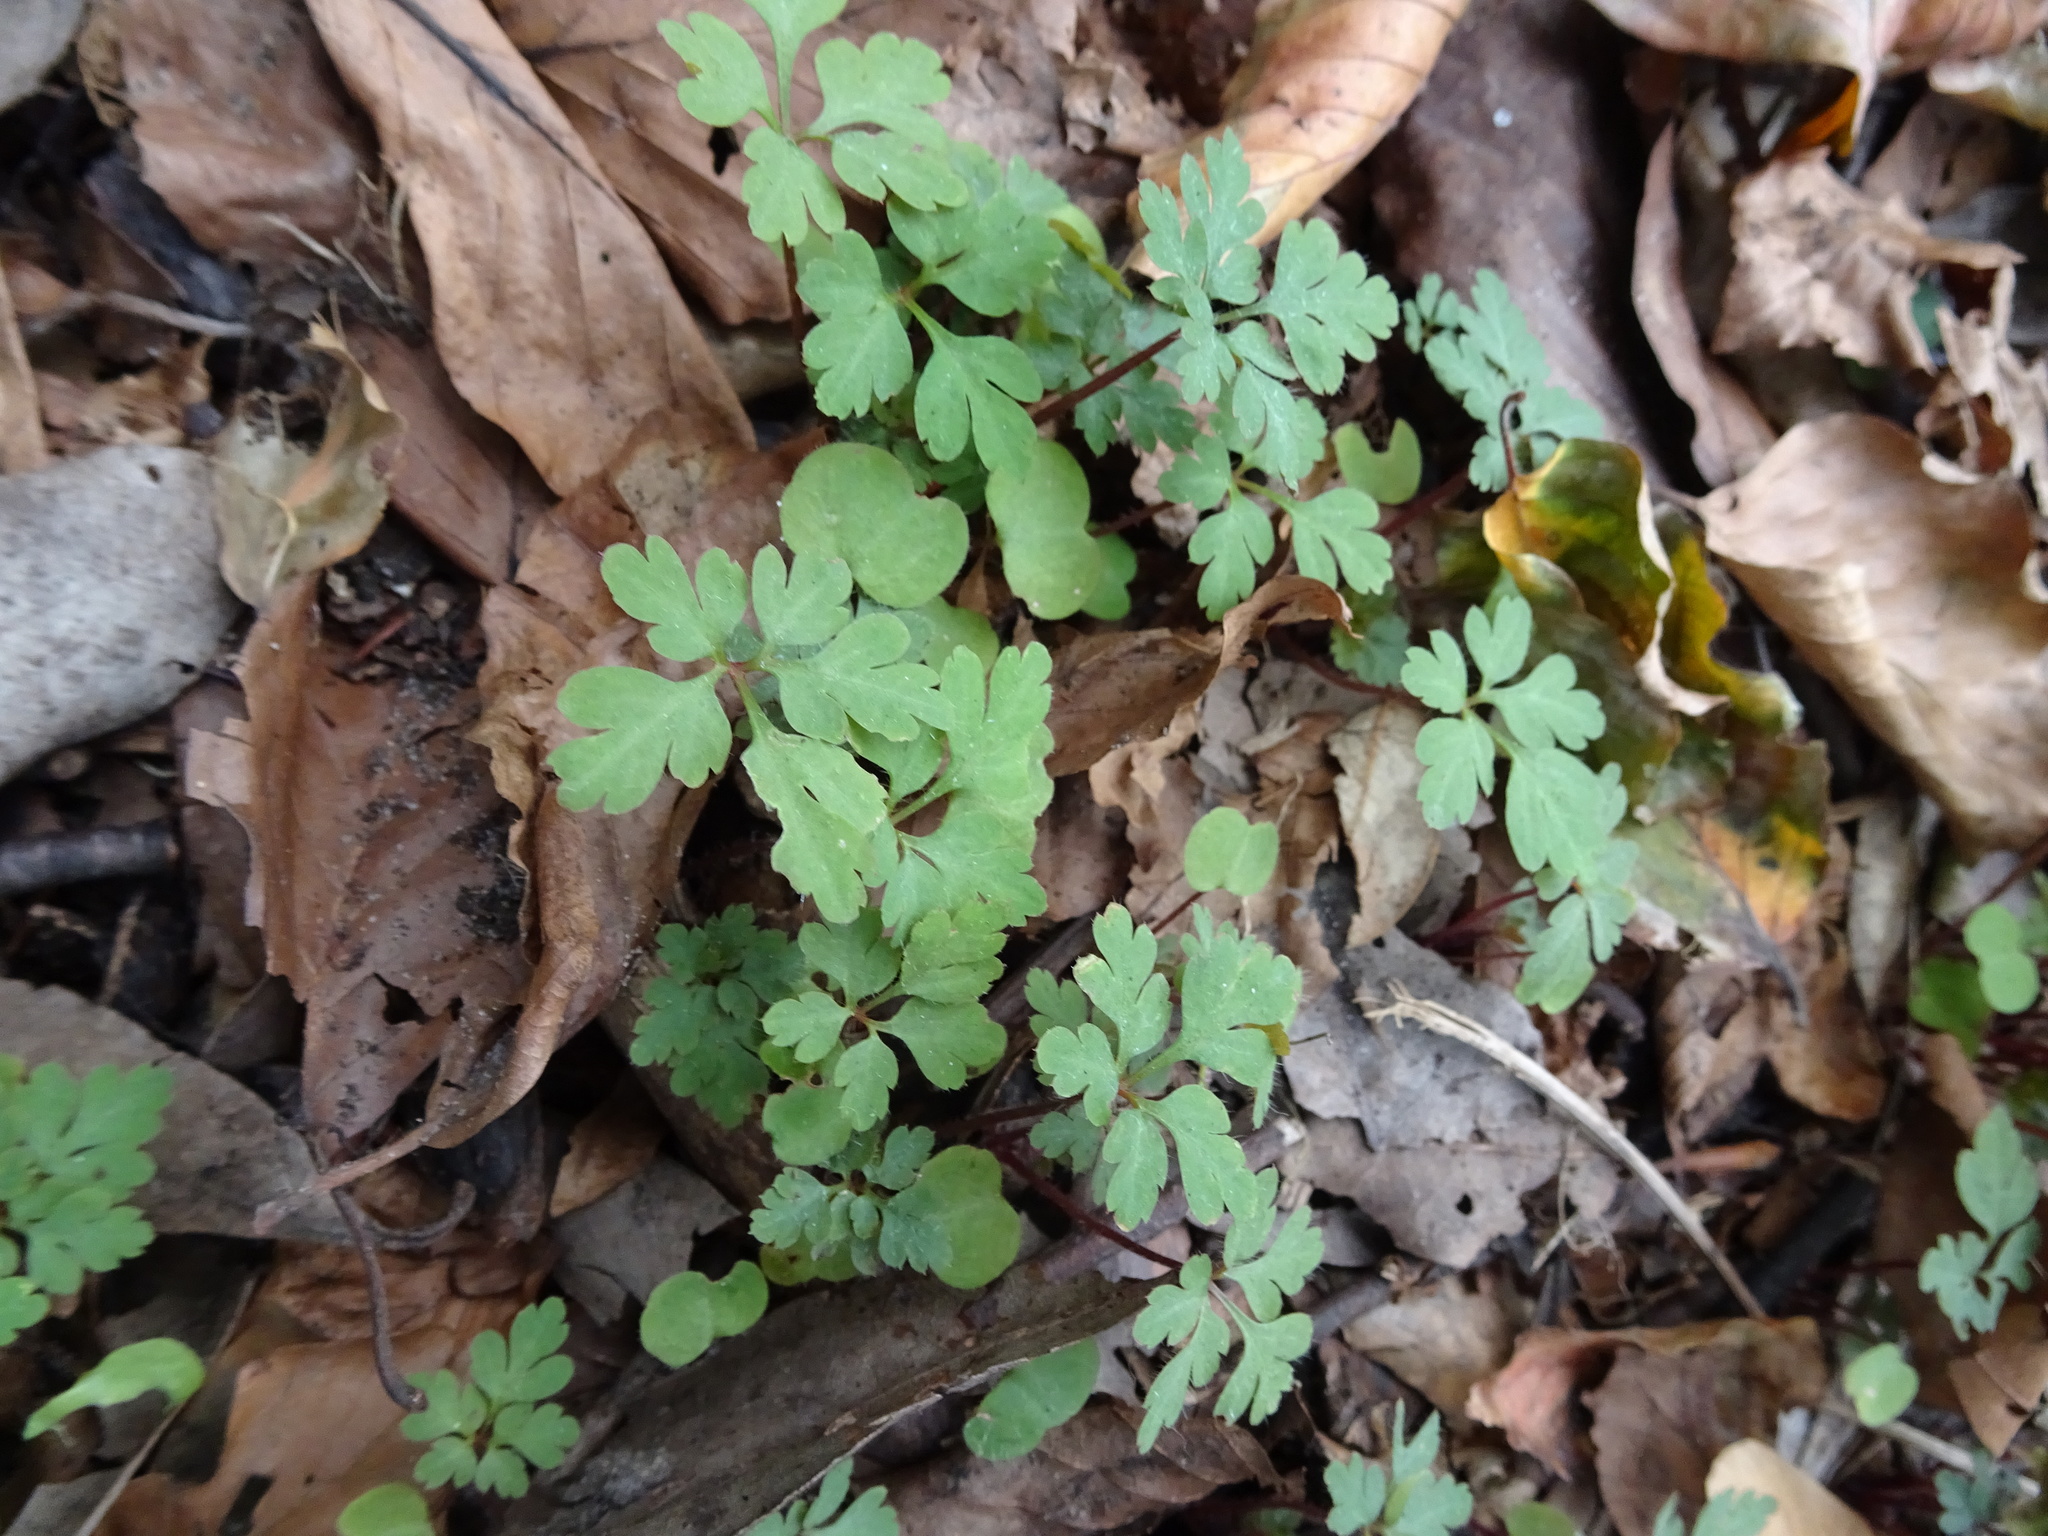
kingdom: Plantae
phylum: Tracheophyta
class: Magnoliopsida
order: Geraniales
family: Geraniaceae
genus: Geranium
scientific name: Geranium robertianum
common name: Herb-robert
